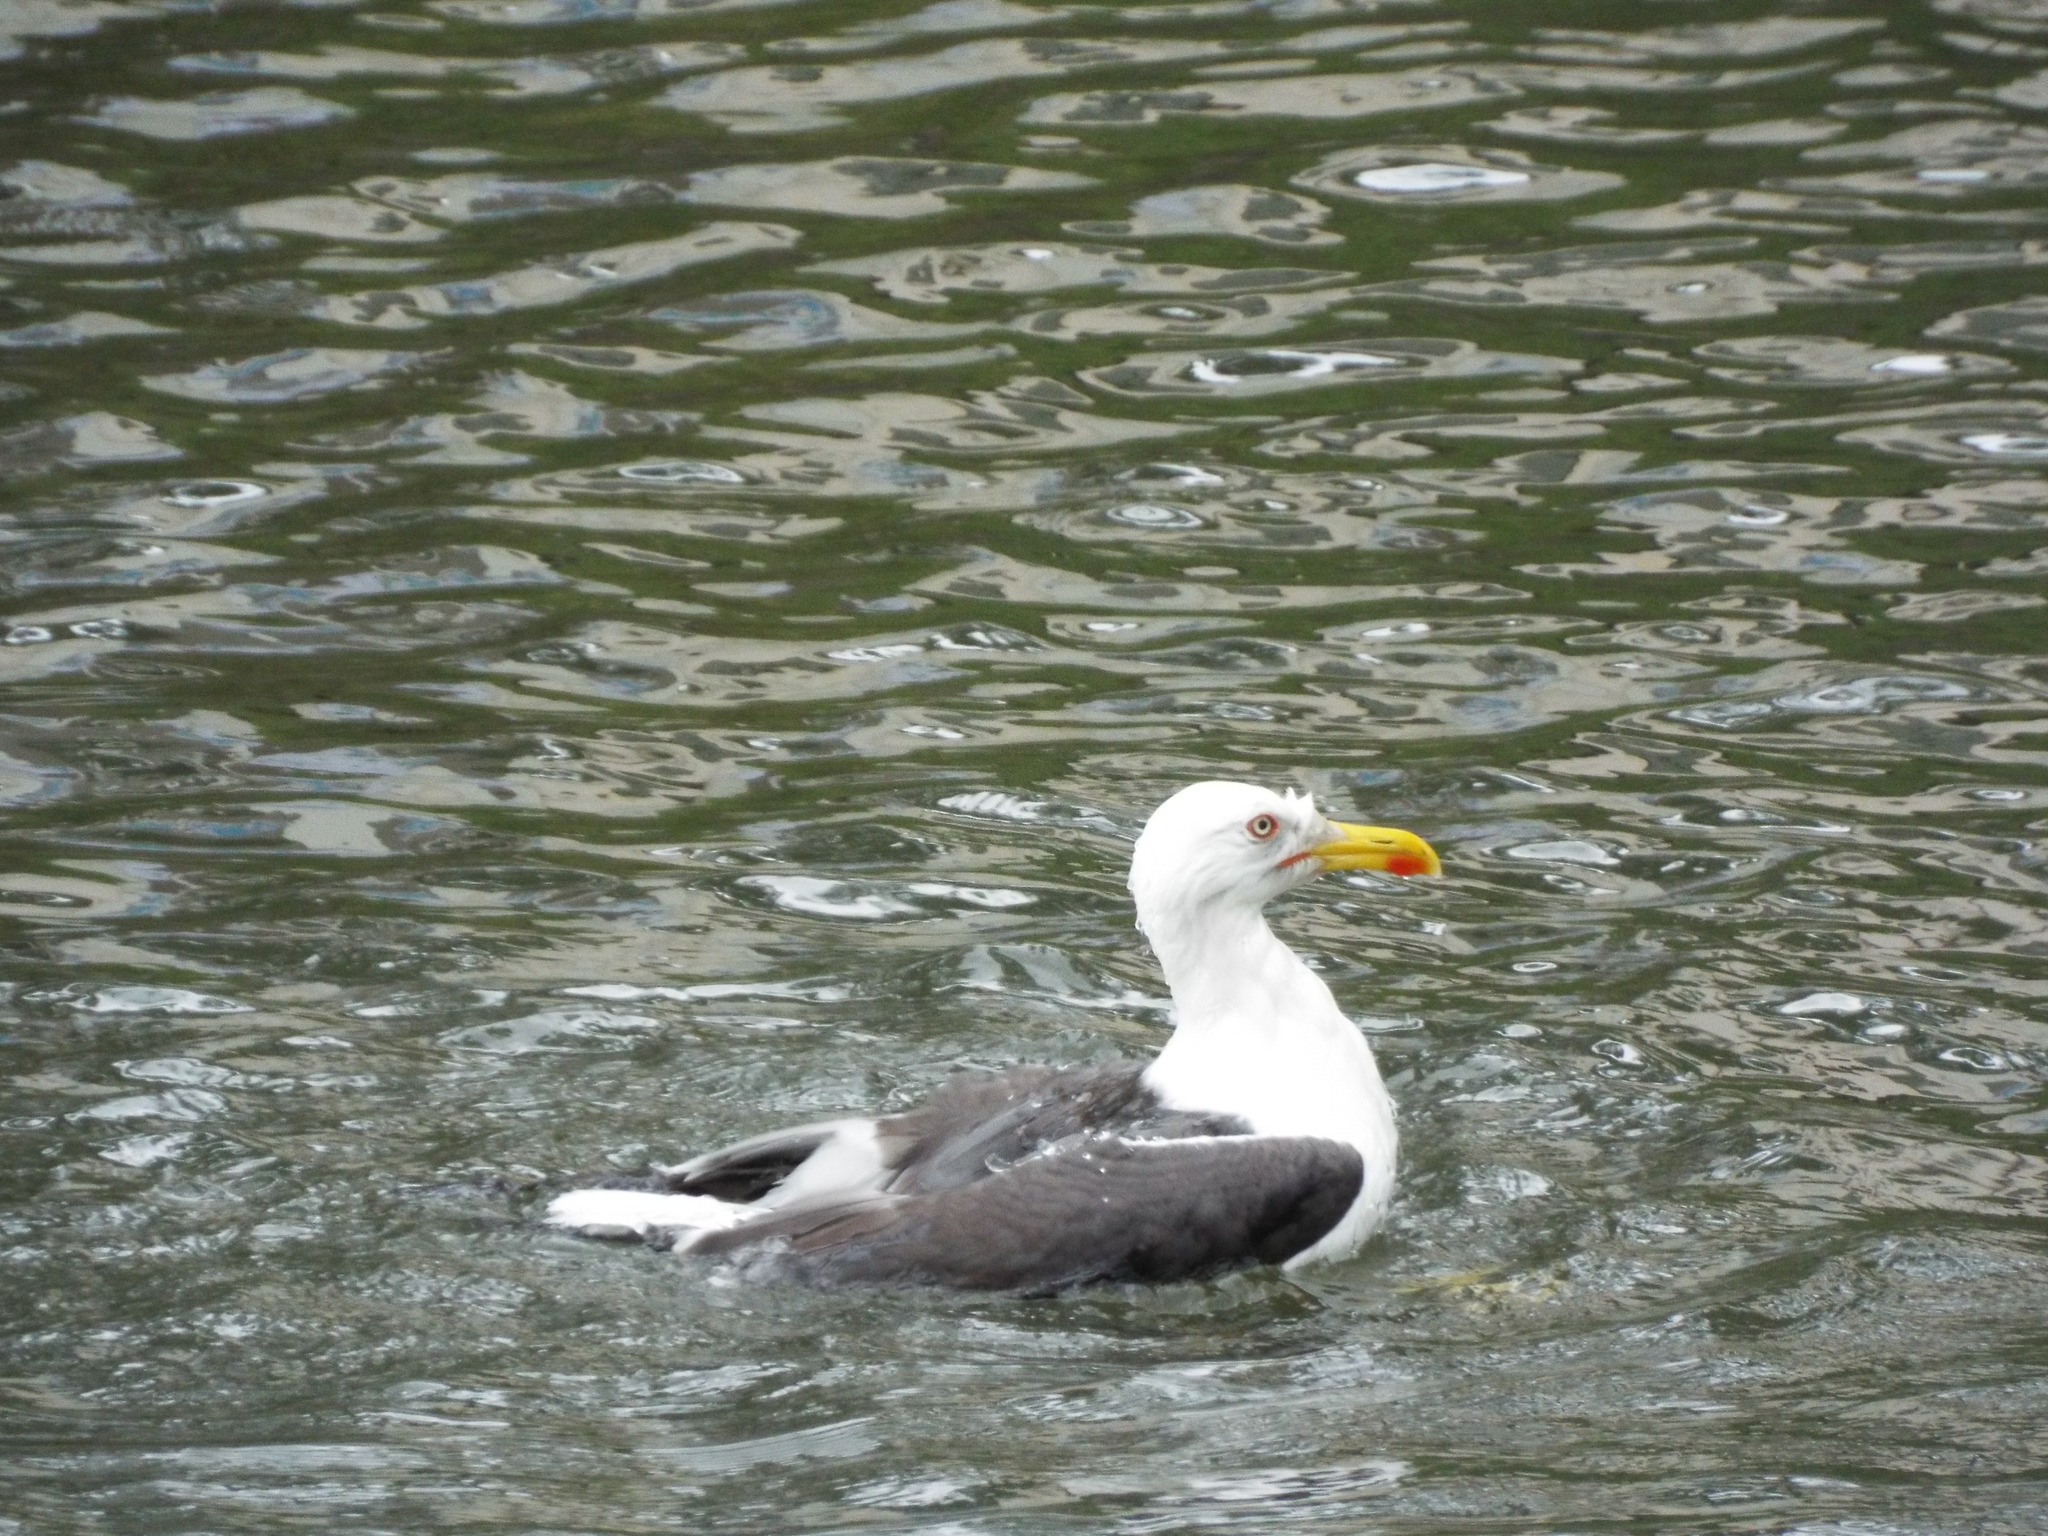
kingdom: Animalia
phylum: Chordata
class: Aves
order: Charadriiformes
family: Laridae
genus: Larus
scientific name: Larus marinus
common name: Great black-backed gull
